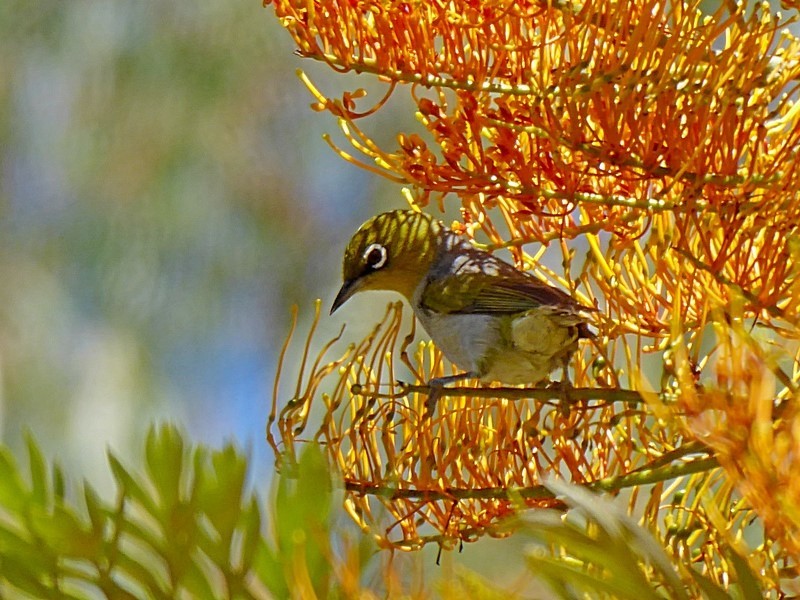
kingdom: Animalia
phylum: Chordata
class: Aves
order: Passeriformes
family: Zosteropidae
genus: Zosterops
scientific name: Zosterops lateralis
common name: Silvereye
